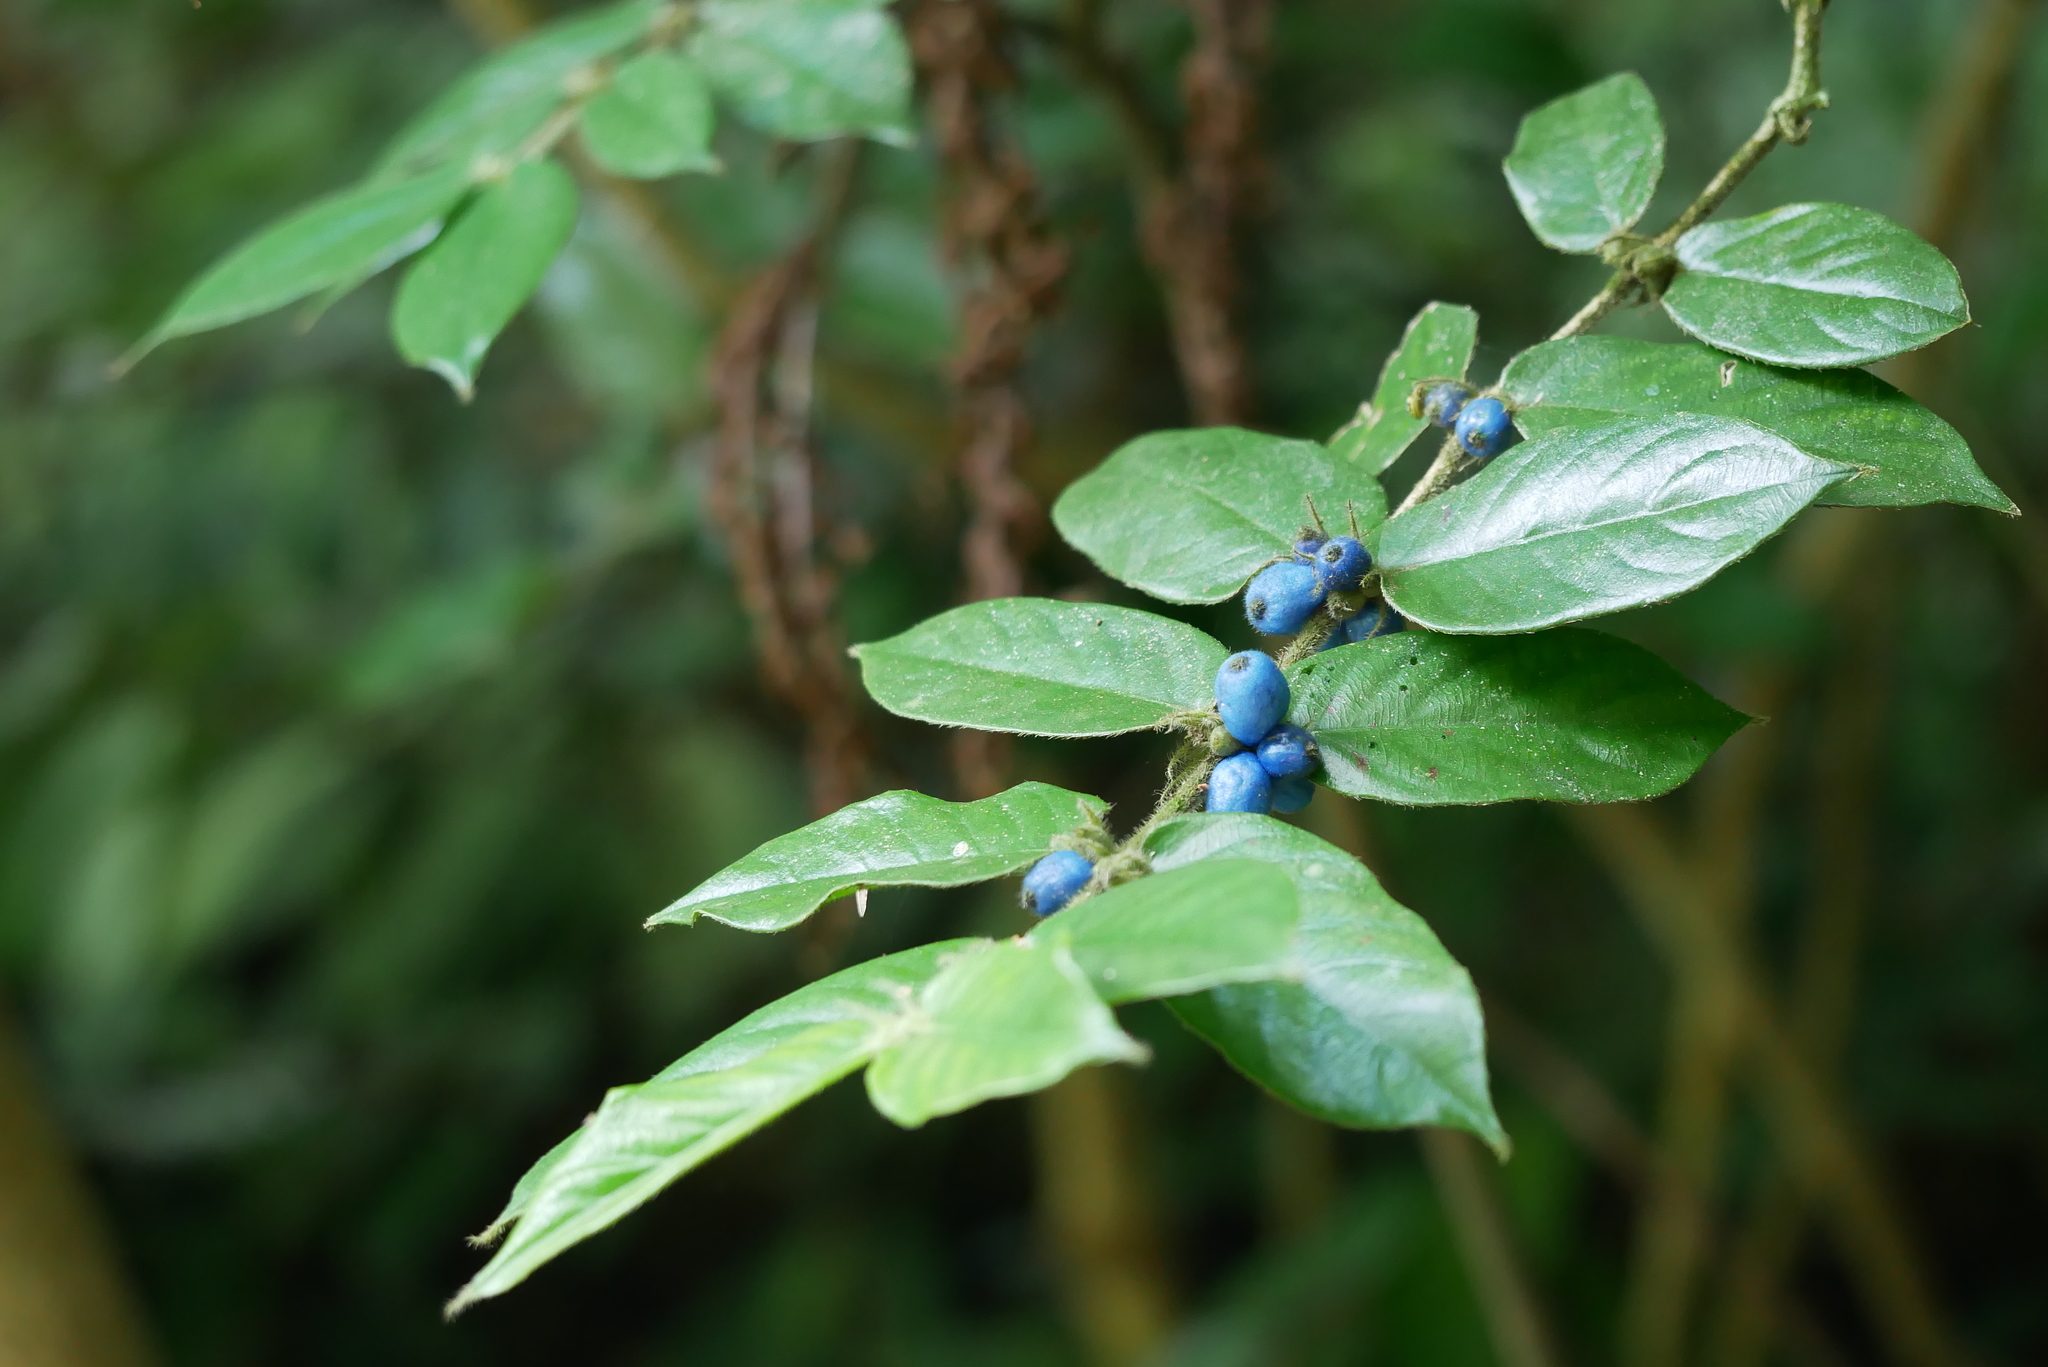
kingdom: Plantae
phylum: Tracheophyta
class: Magnoliopsida
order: Gentianales
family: Rubiaceae
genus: Lasianthus
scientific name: Lasianthus attenuatus
